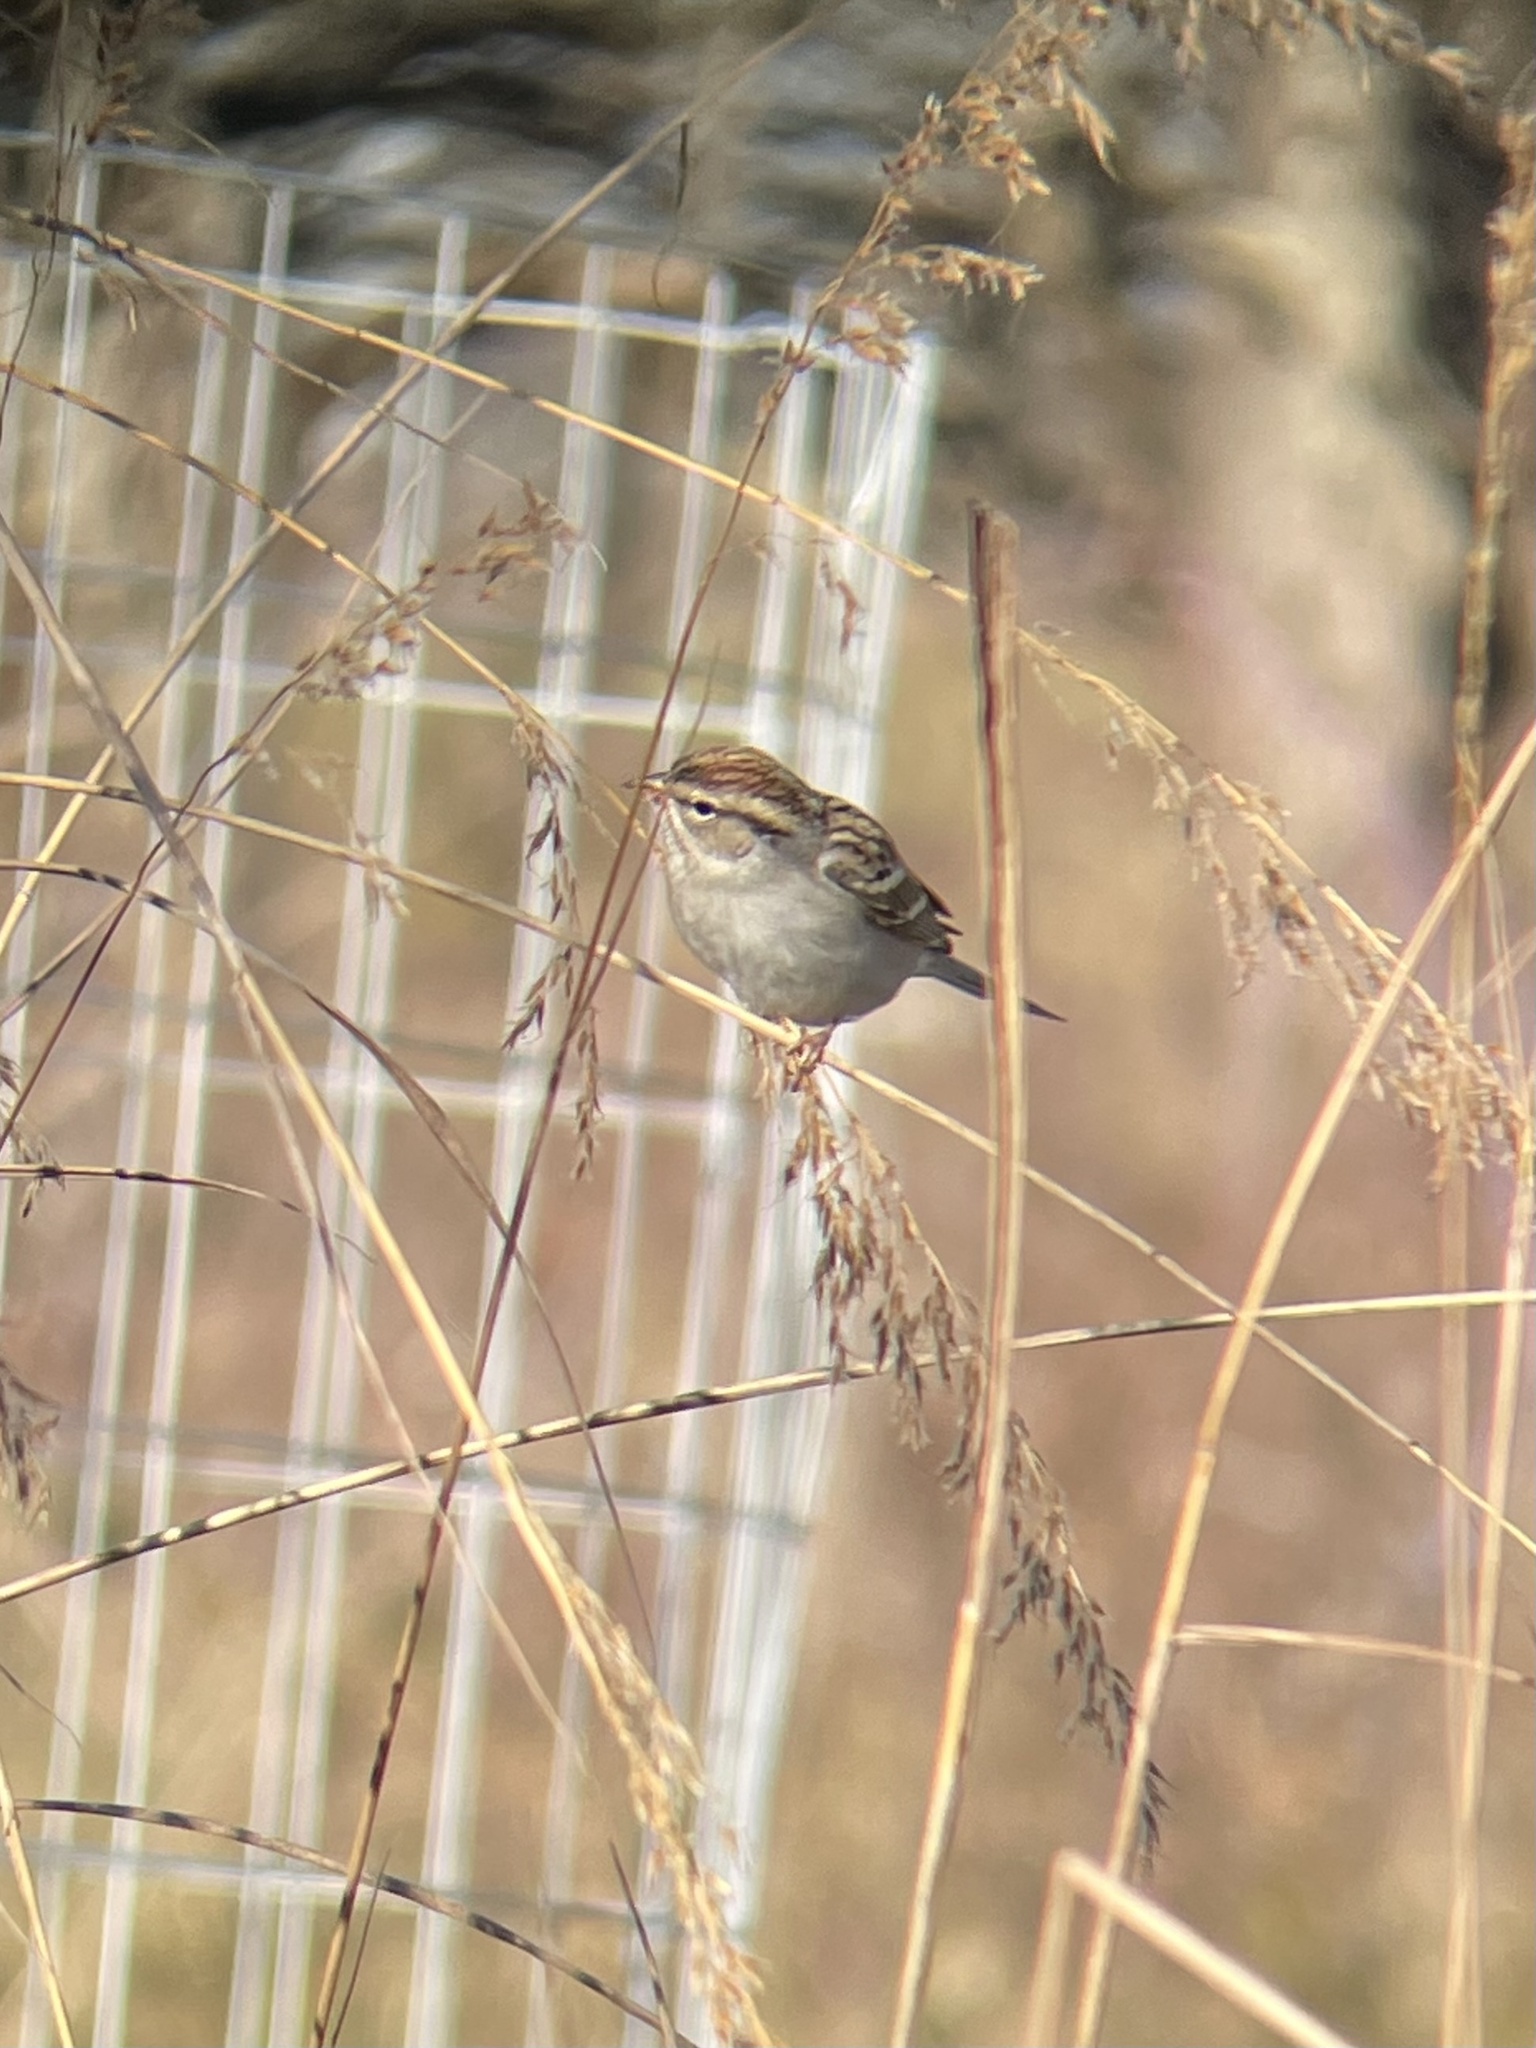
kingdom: Animalia
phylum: Chordata
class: Aves
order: Passeriformes
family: Passerellidae
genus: Spizella
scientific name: Spizella passerina
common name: Chipping sparrow
